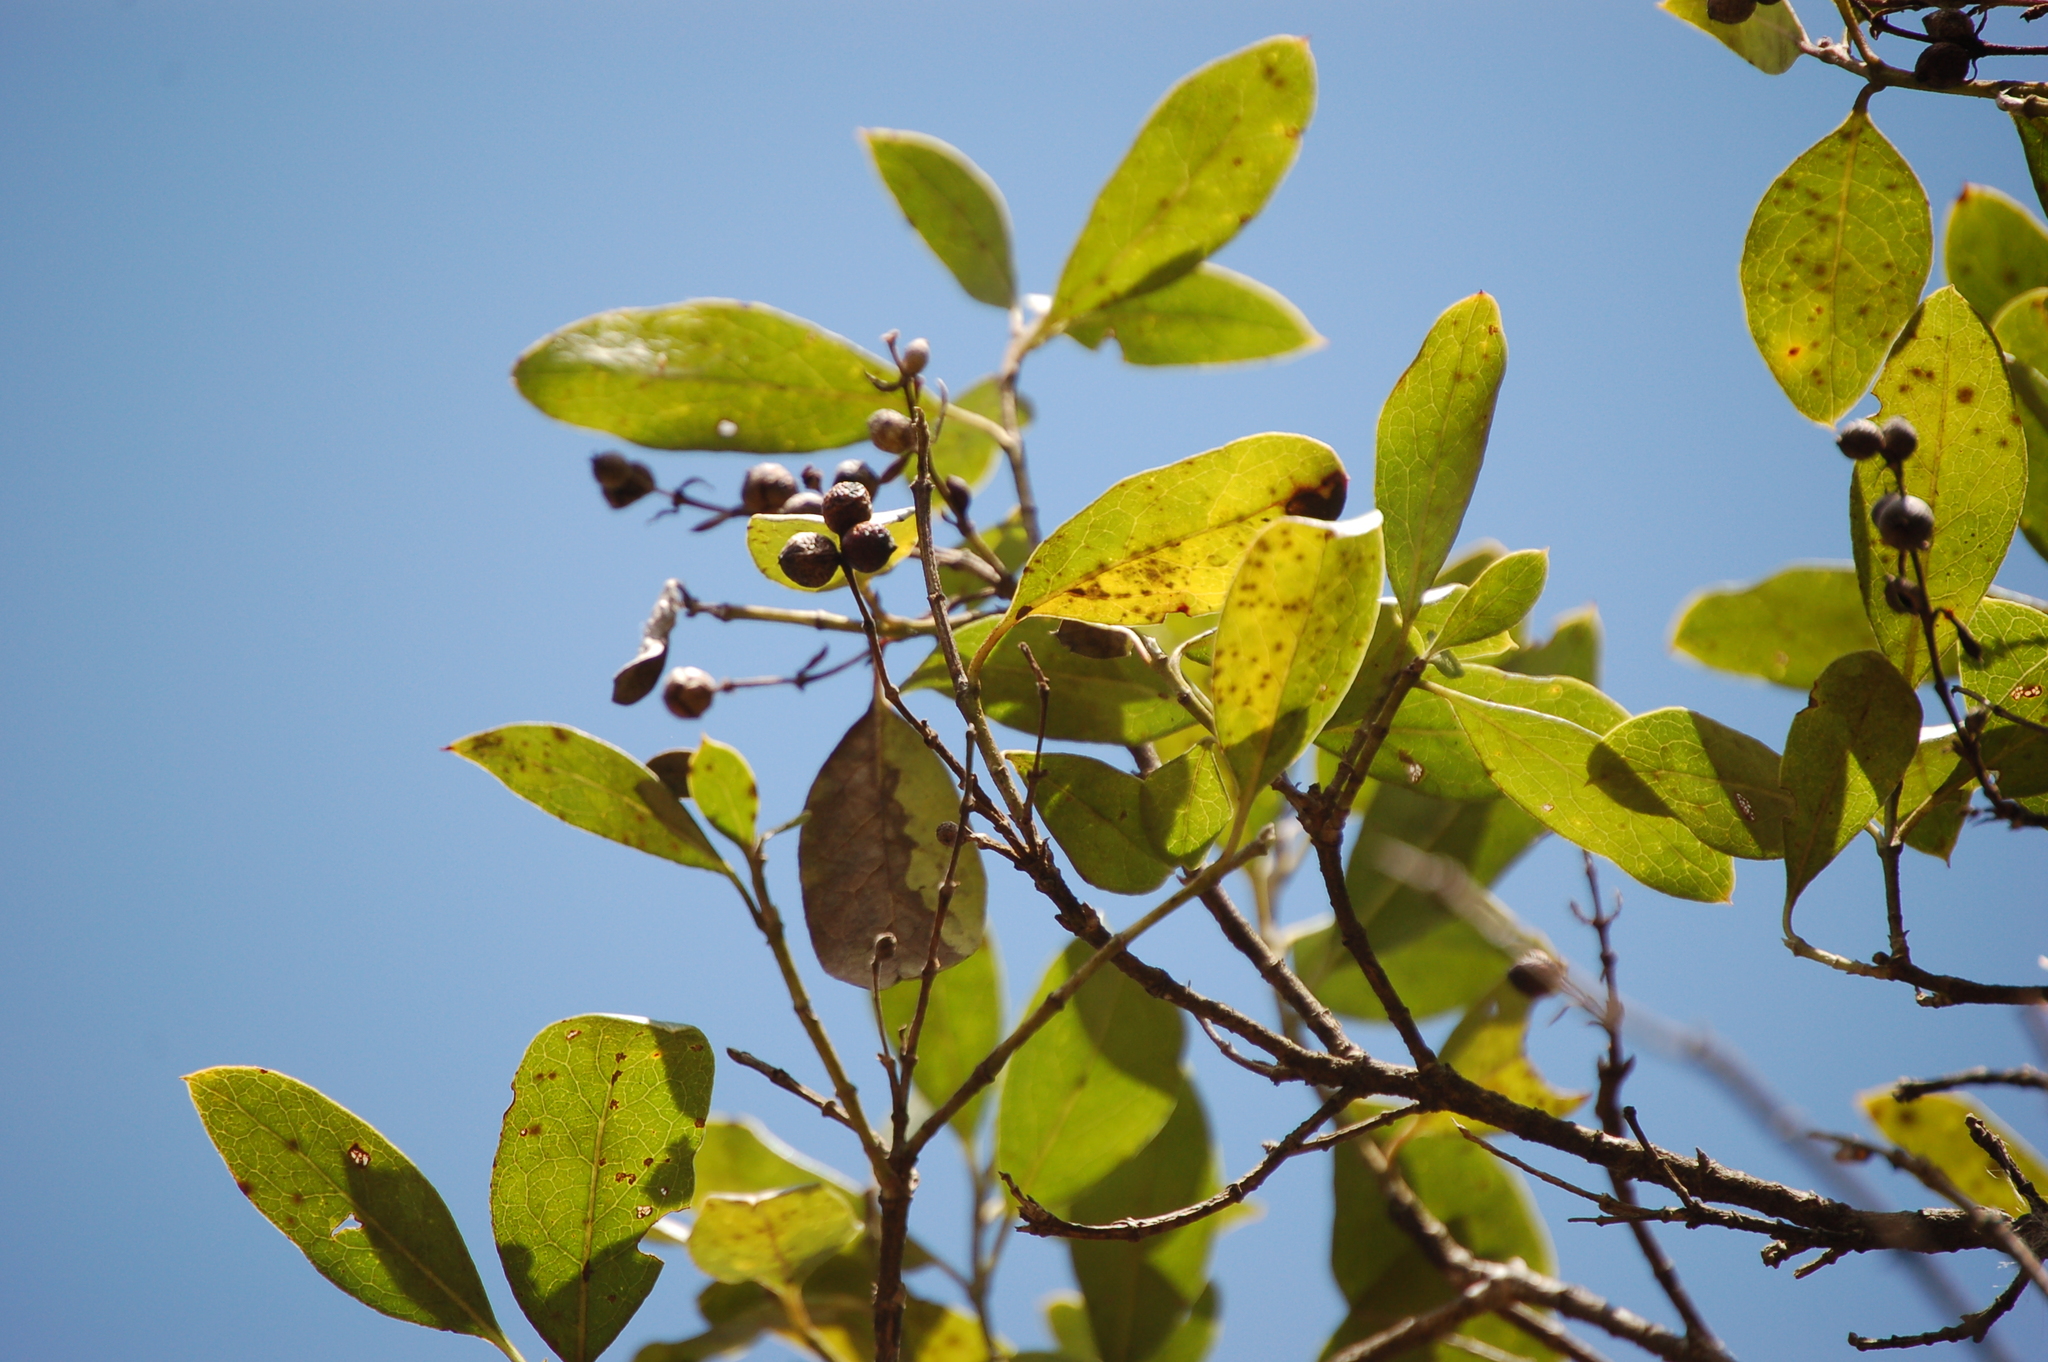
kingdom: Plantae
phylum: Tracheophyta
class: Magnoliopsida
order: Garryales
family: Garryaceae
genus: Garrya
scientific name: Garrya laurifolia
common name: Cuachichic
